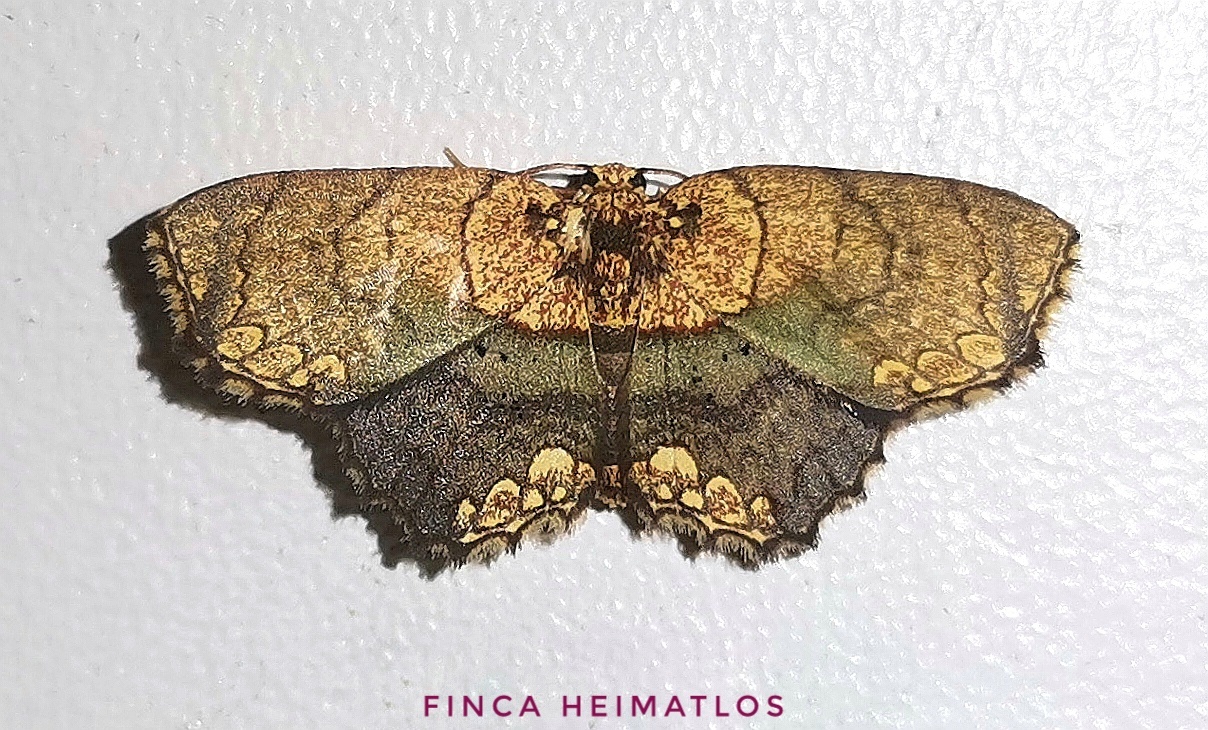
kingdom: Animalia
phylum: Arthropoda
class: Insecta
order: Lepidoptera
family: Geometridae
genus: Semaeopus
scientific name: Semaeopus peplumaria
